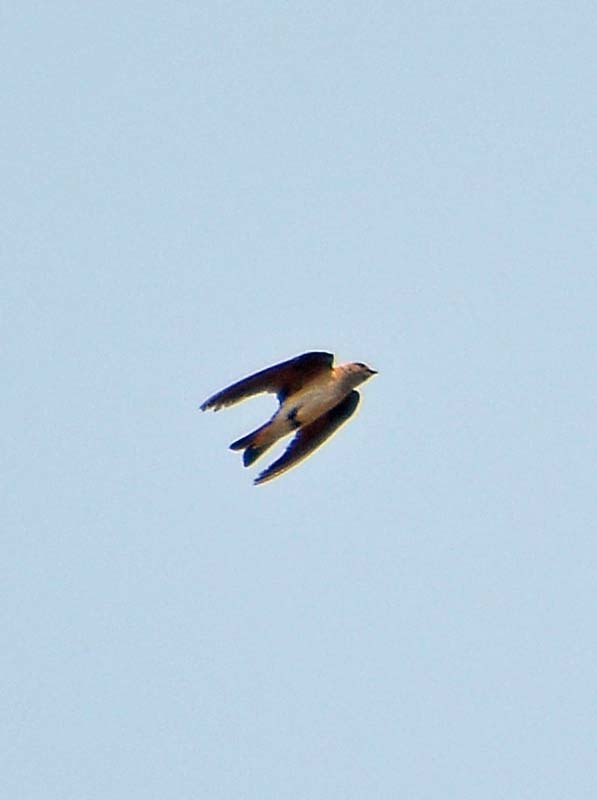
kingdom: Animalia
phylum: Chordata
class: Aves
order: Passeriformes
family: Hirundinidae
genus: Stelgidopteryx
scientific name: Stelgidopteryx serripennis
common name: Northern rough-winged swallow
